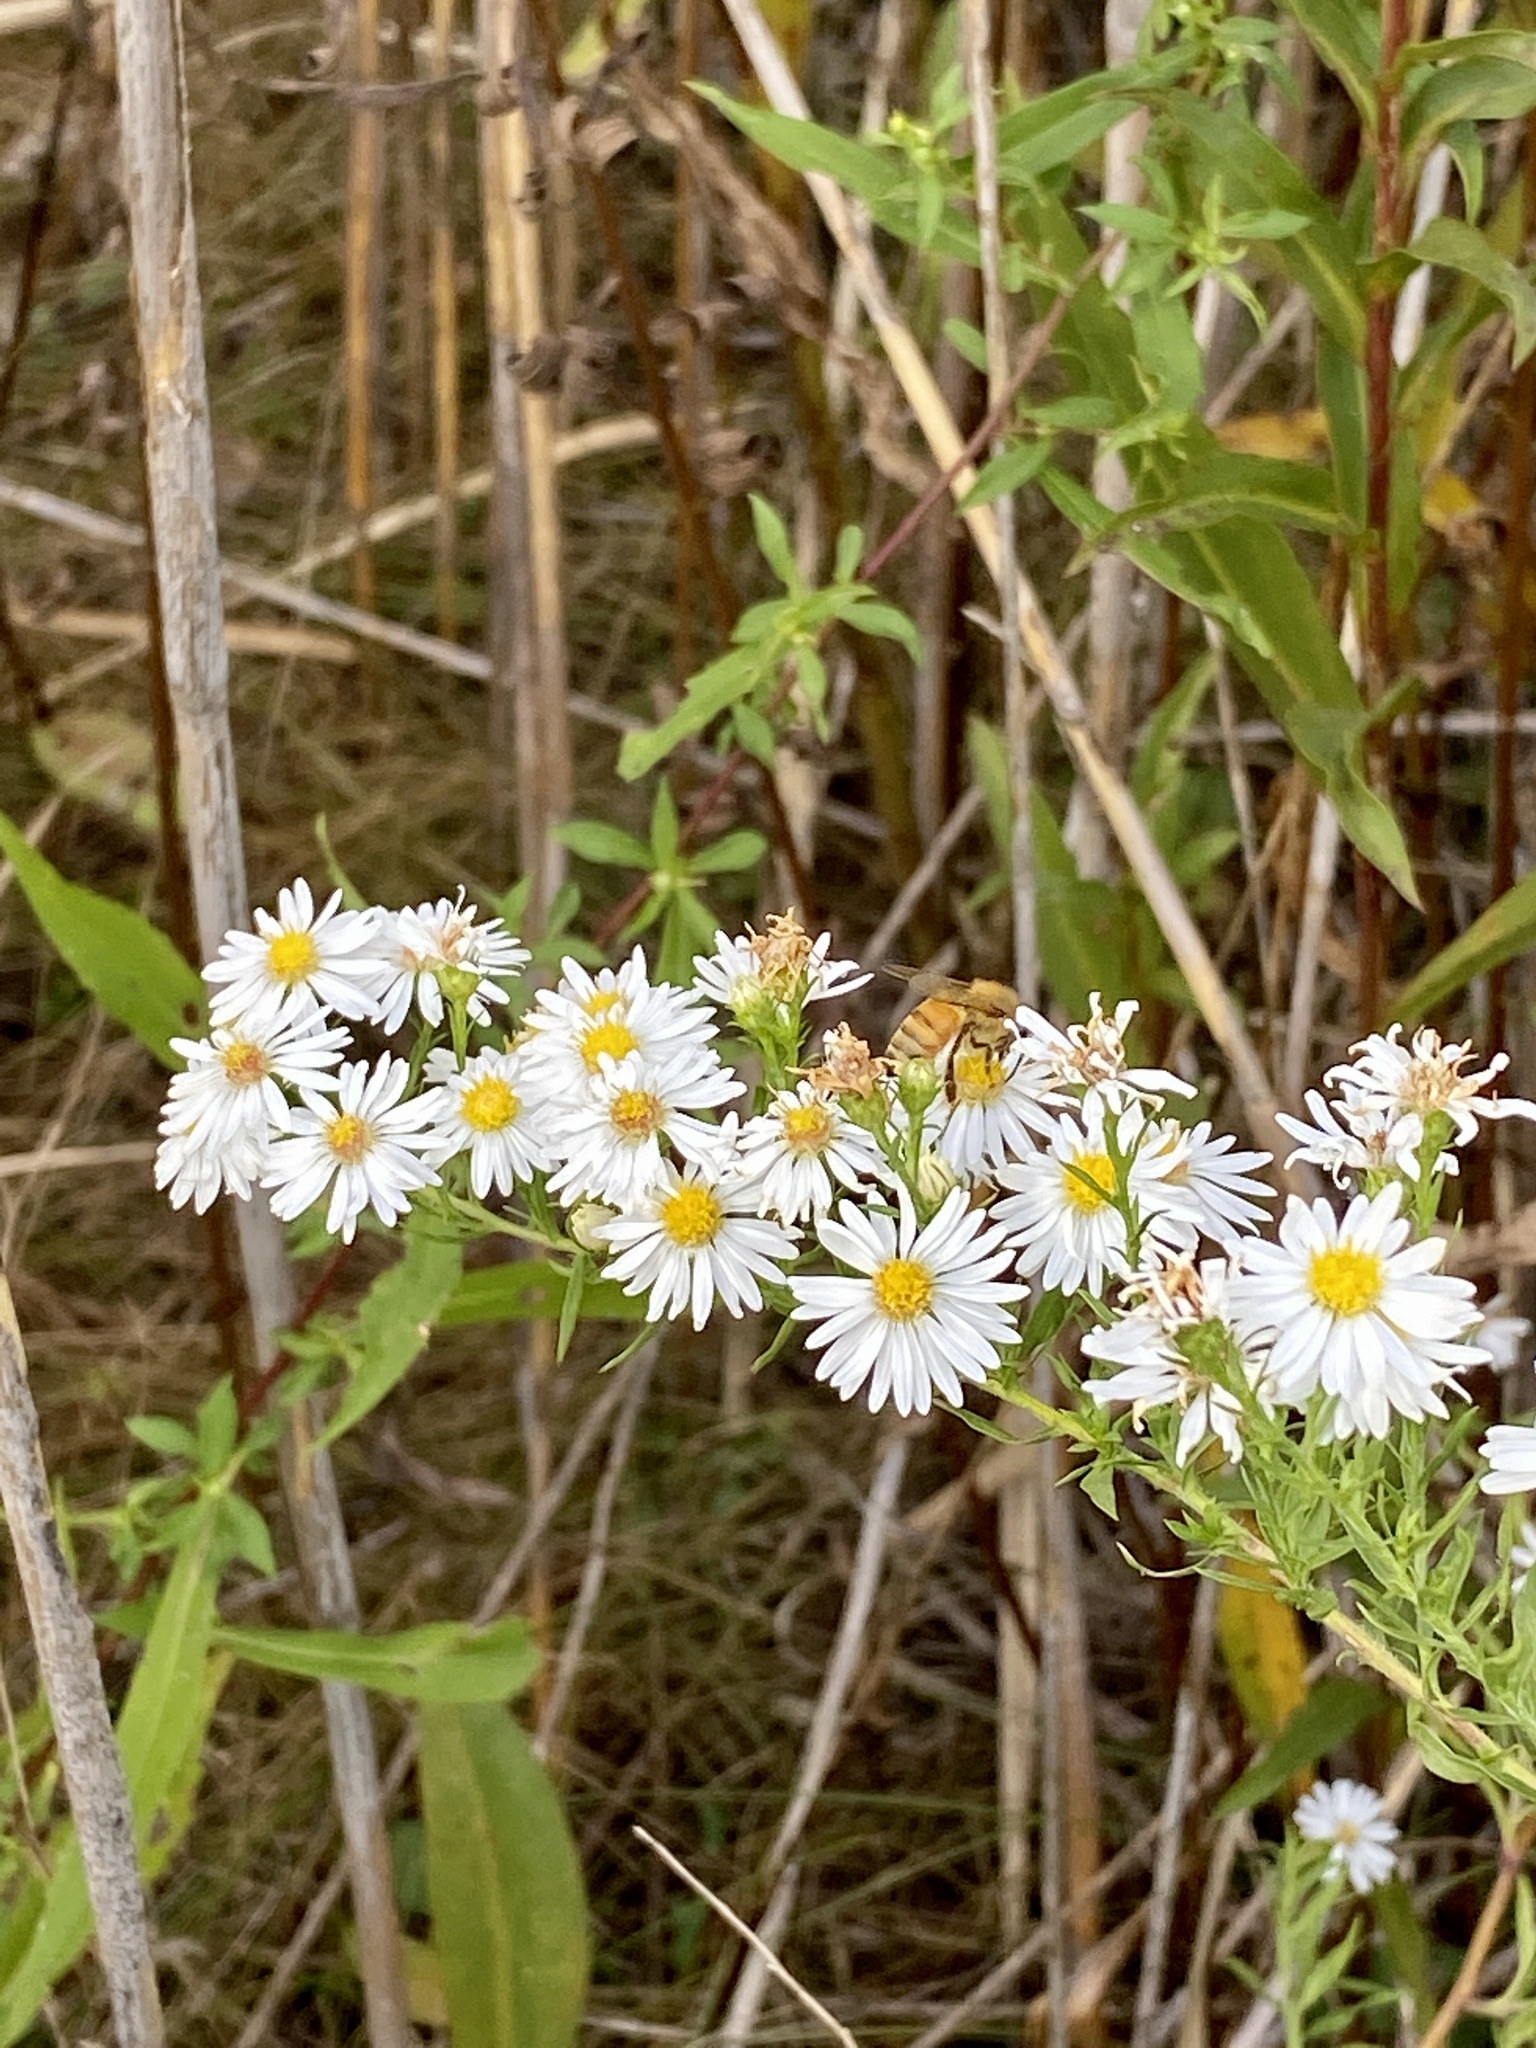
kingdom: Plantae
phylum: Tracheophyta
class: Magnoliopsida
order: Asterales
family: Asteraceae
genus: Symphyotrichum
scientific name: Symphyotrichum pilosum
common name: Awl aster
